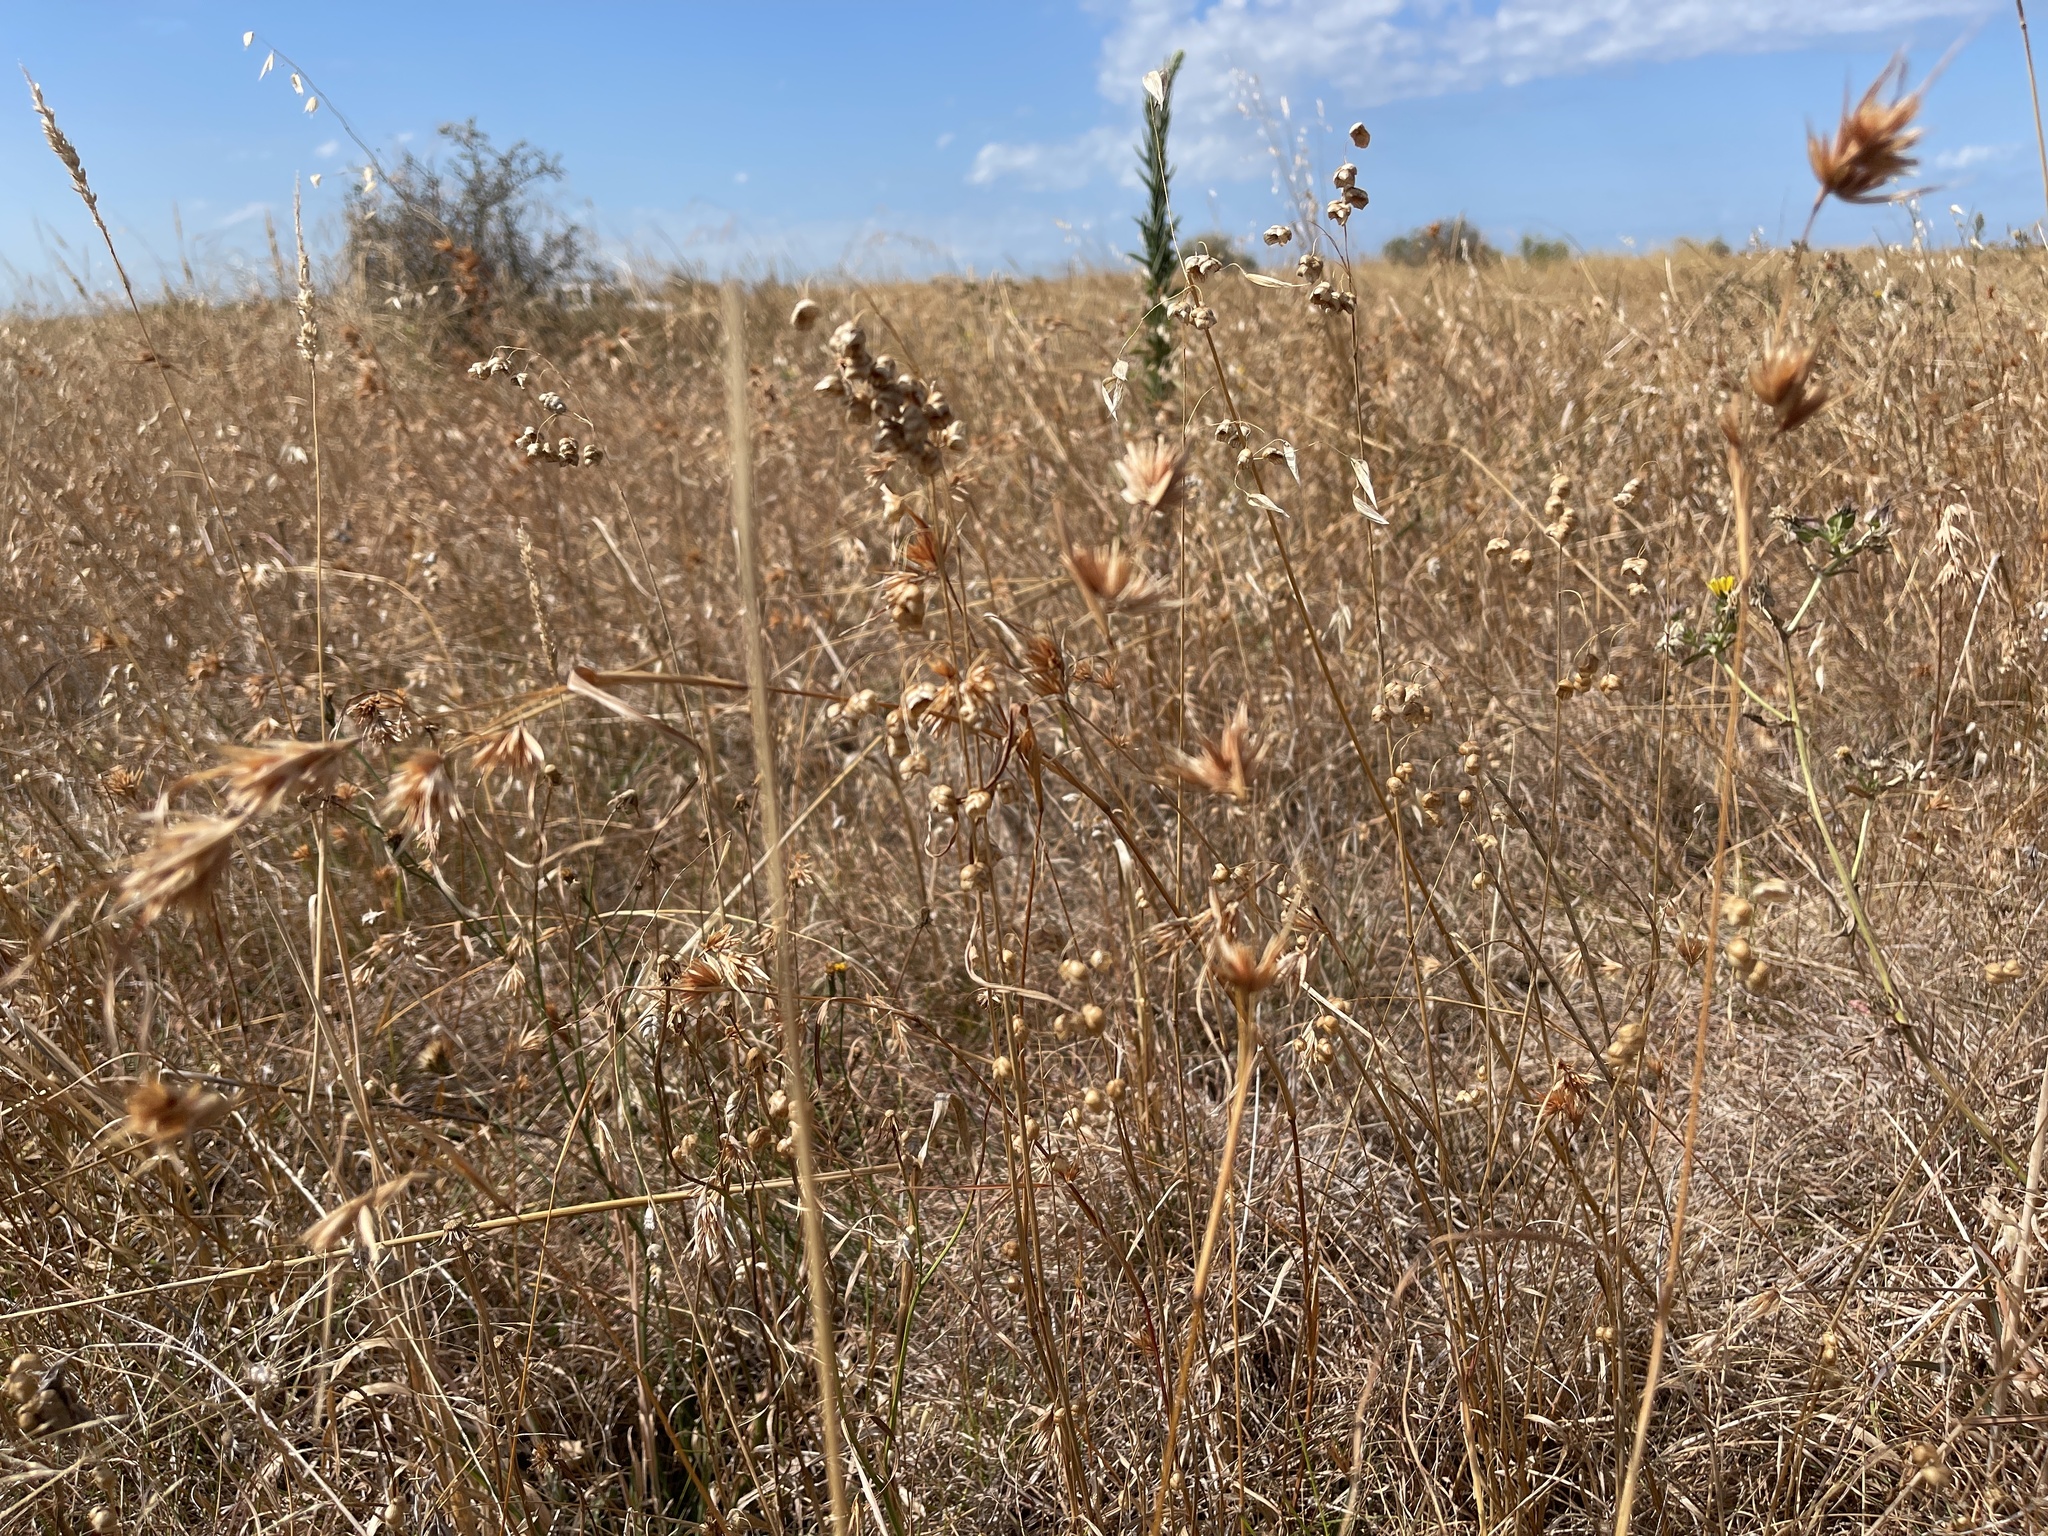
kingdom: Plantae
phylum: Tracheophyta
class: Liliopsida
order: Poales
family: Poaceae
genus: Themeda
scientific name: Themeda triandra
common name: Kangaroo grass
